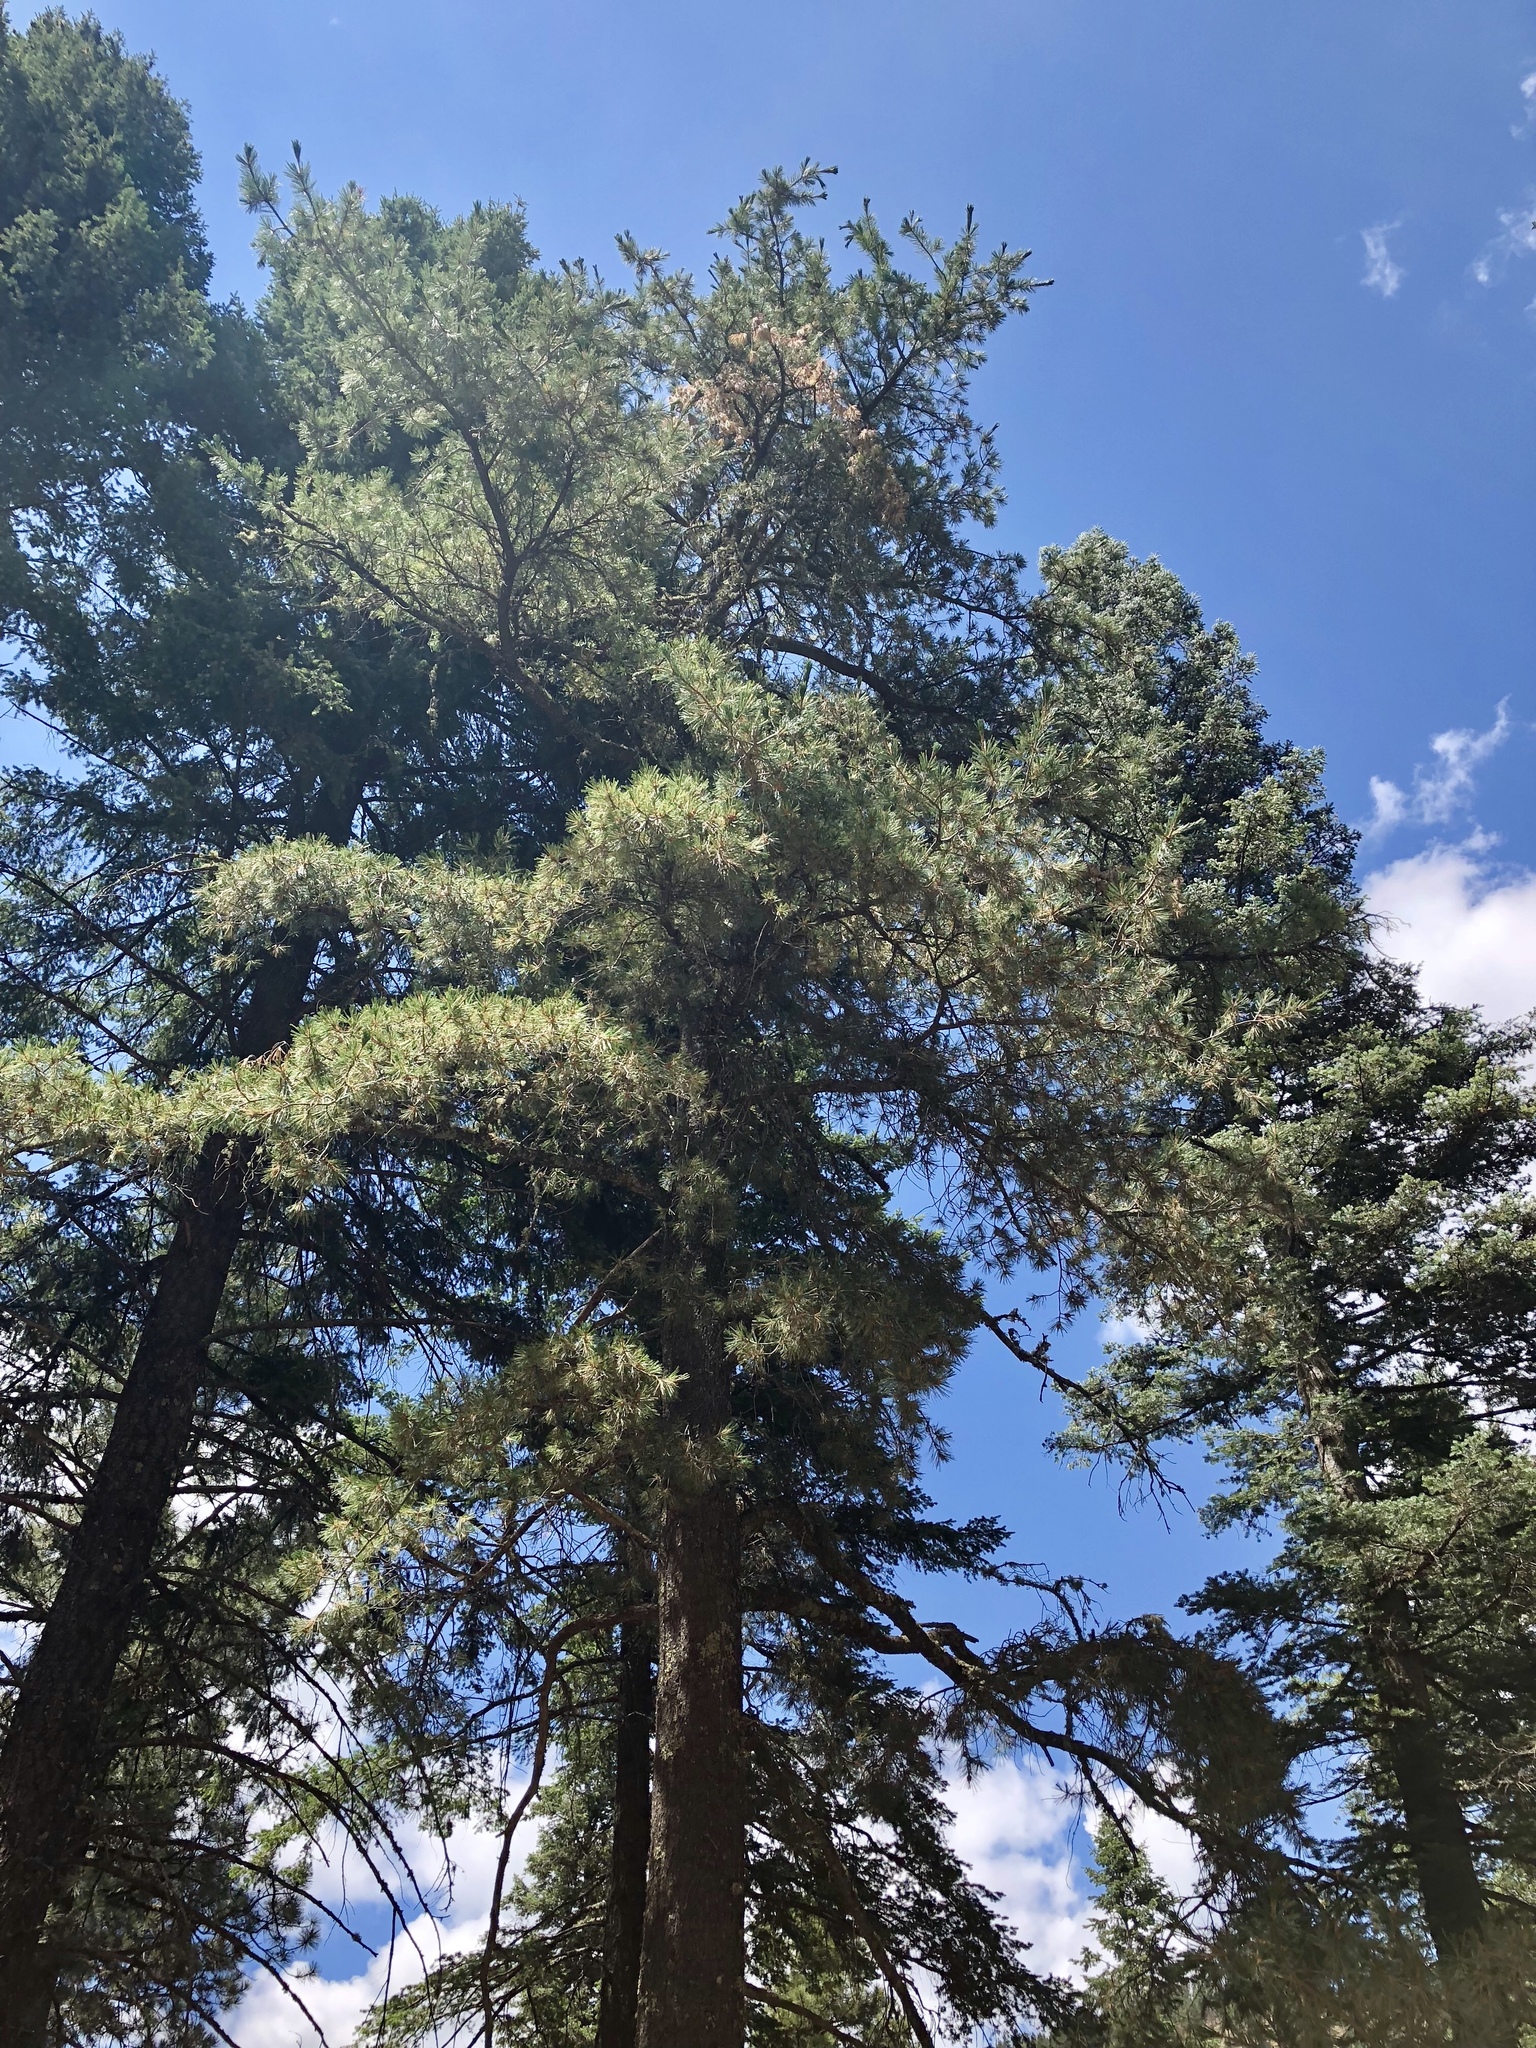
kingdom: Plantae
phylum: Tracheophyta
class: Pinopsida
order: Pinales
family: Pinaceae
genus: Pinus
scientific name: Pinus strobiformis
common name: Southwestern white pine
